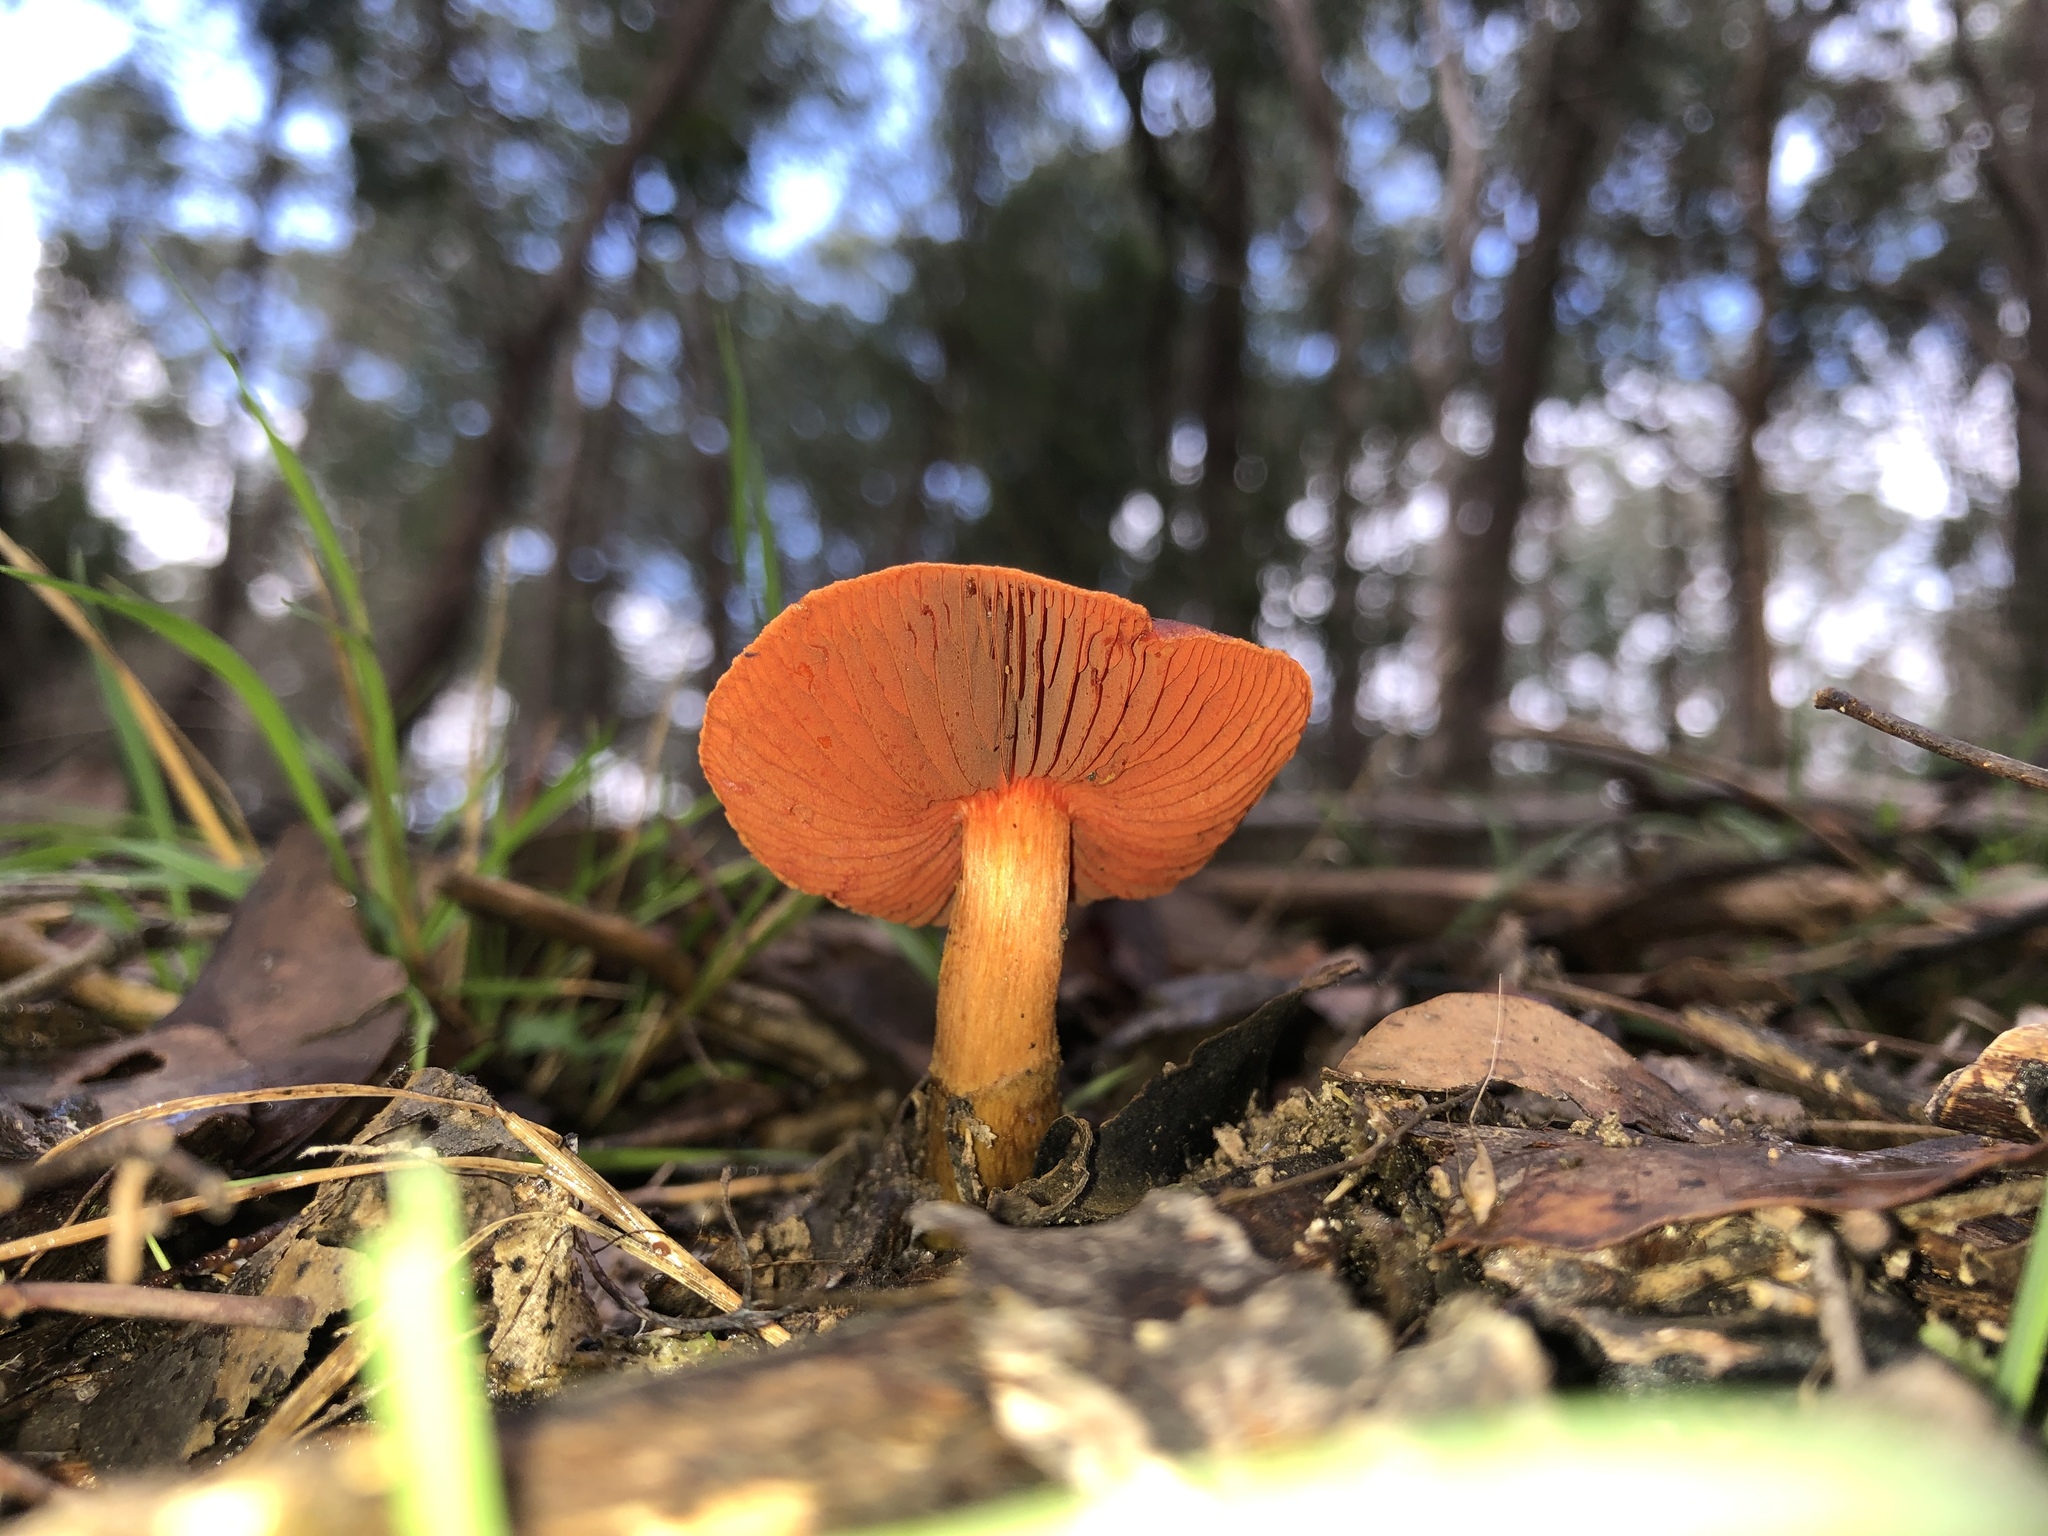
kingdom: Fungi
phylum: Basidiomycota
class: Agaricomycetes
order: Agaricales
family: Cortinariaceae
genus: Cortinarius
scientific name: Cortinarius persplendidus
